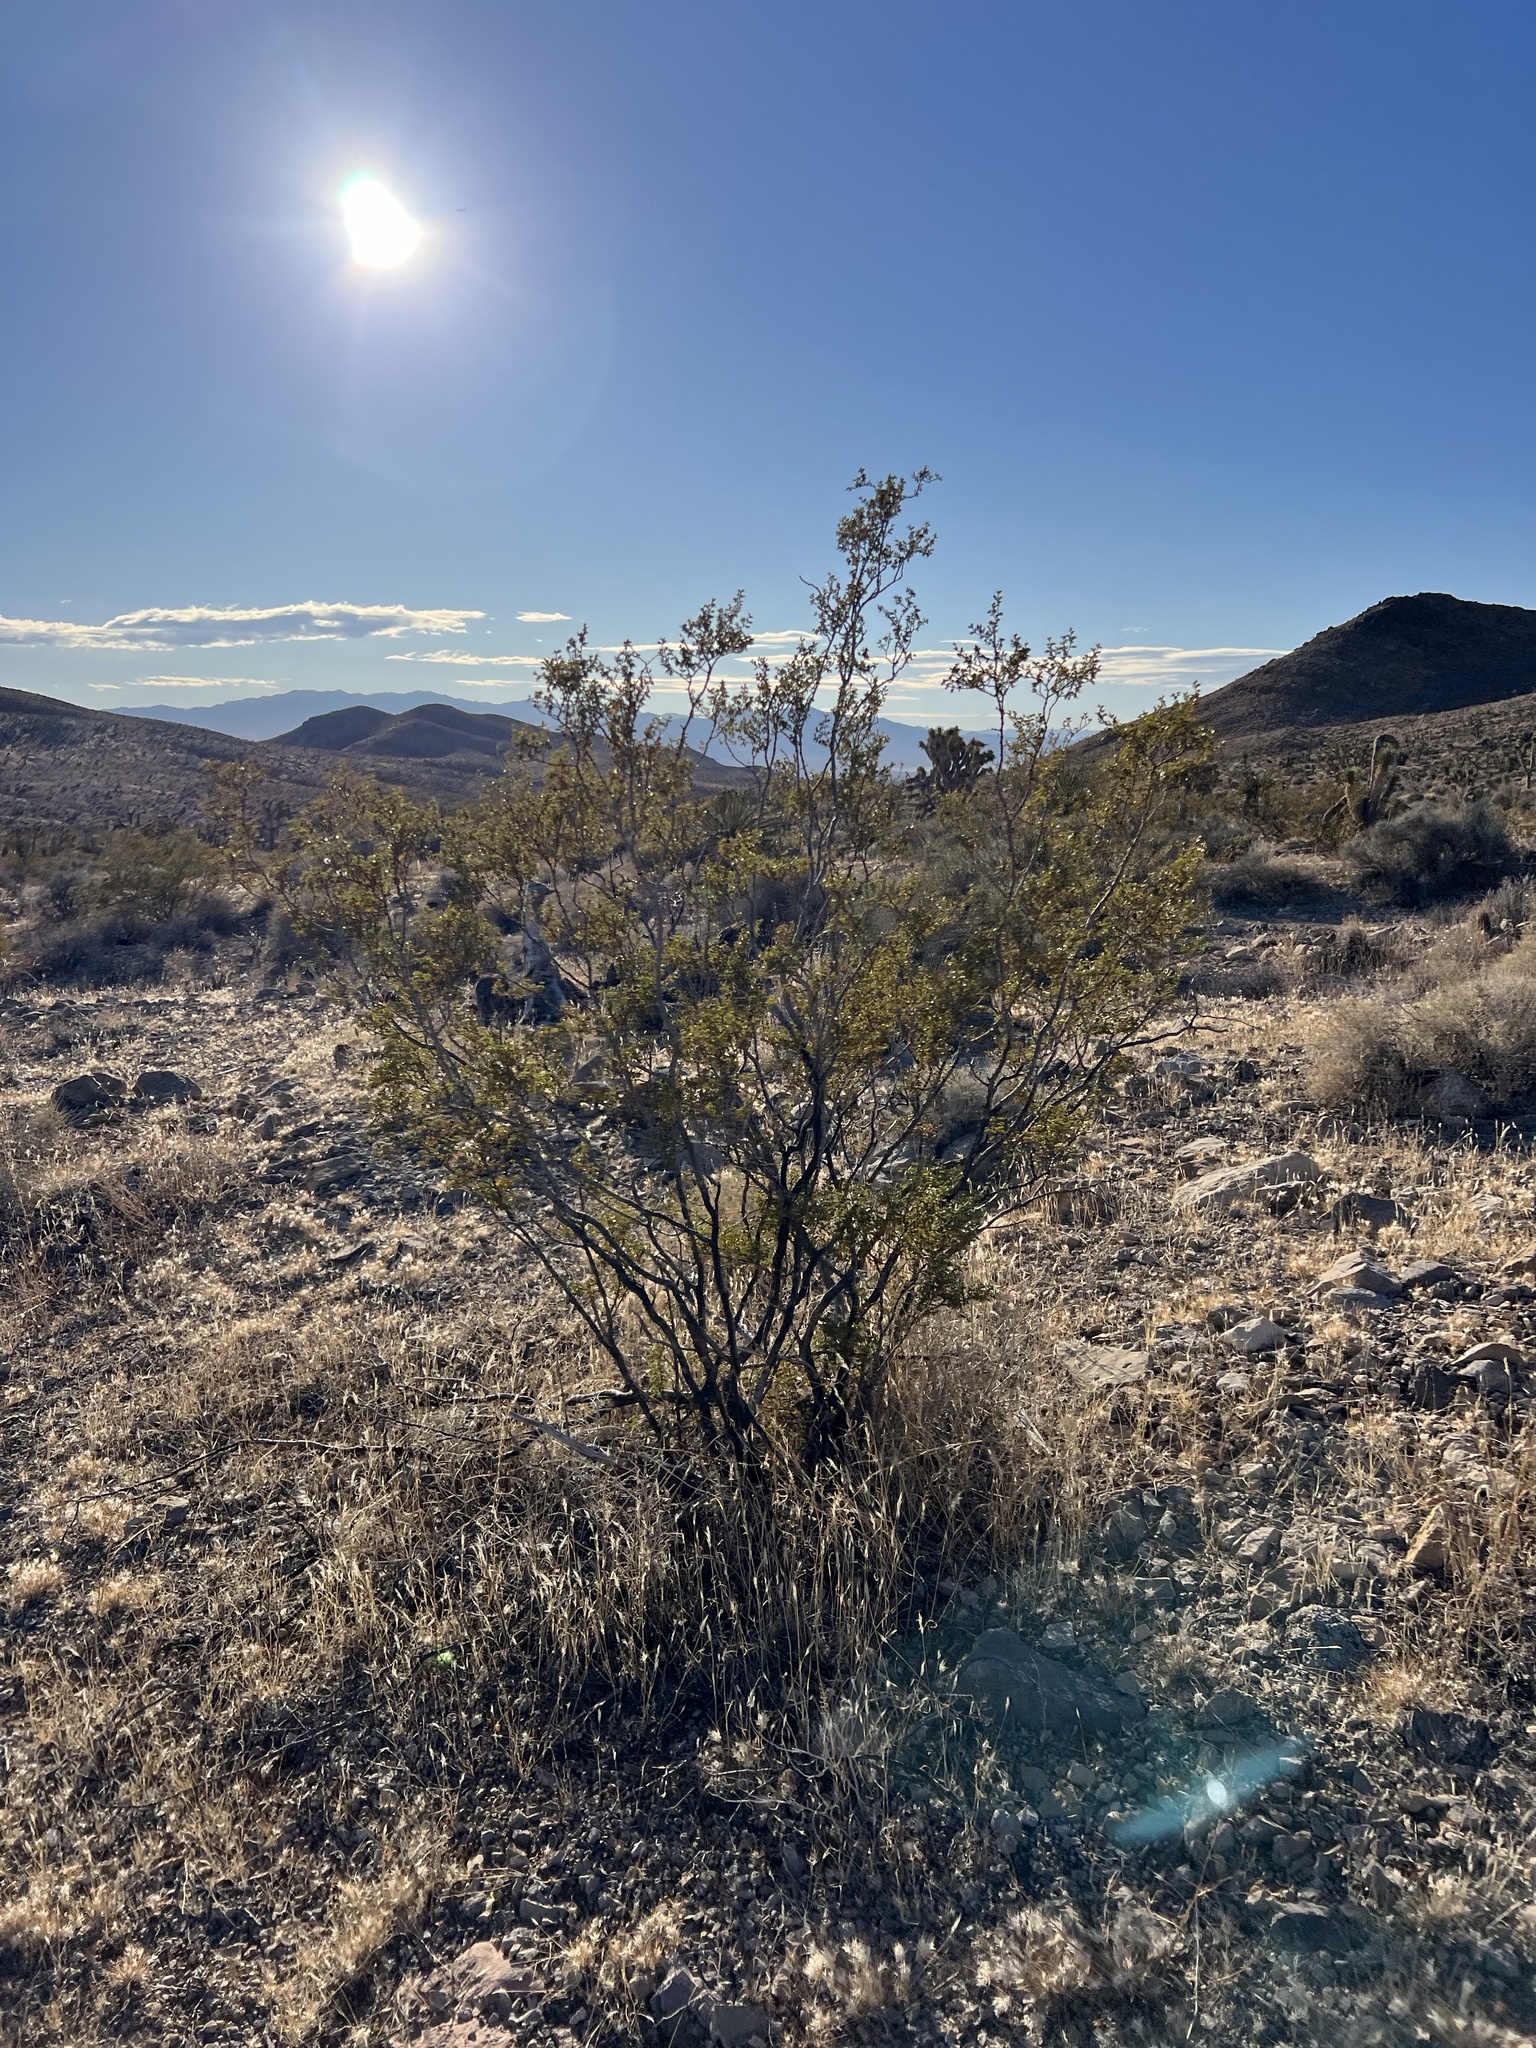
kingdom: Plantae
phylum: Tracheophyta
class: Magnoliopsida
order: Zygophyllales
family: Zygophyllaceae
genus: Larrea
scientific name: Larrea tridentata
